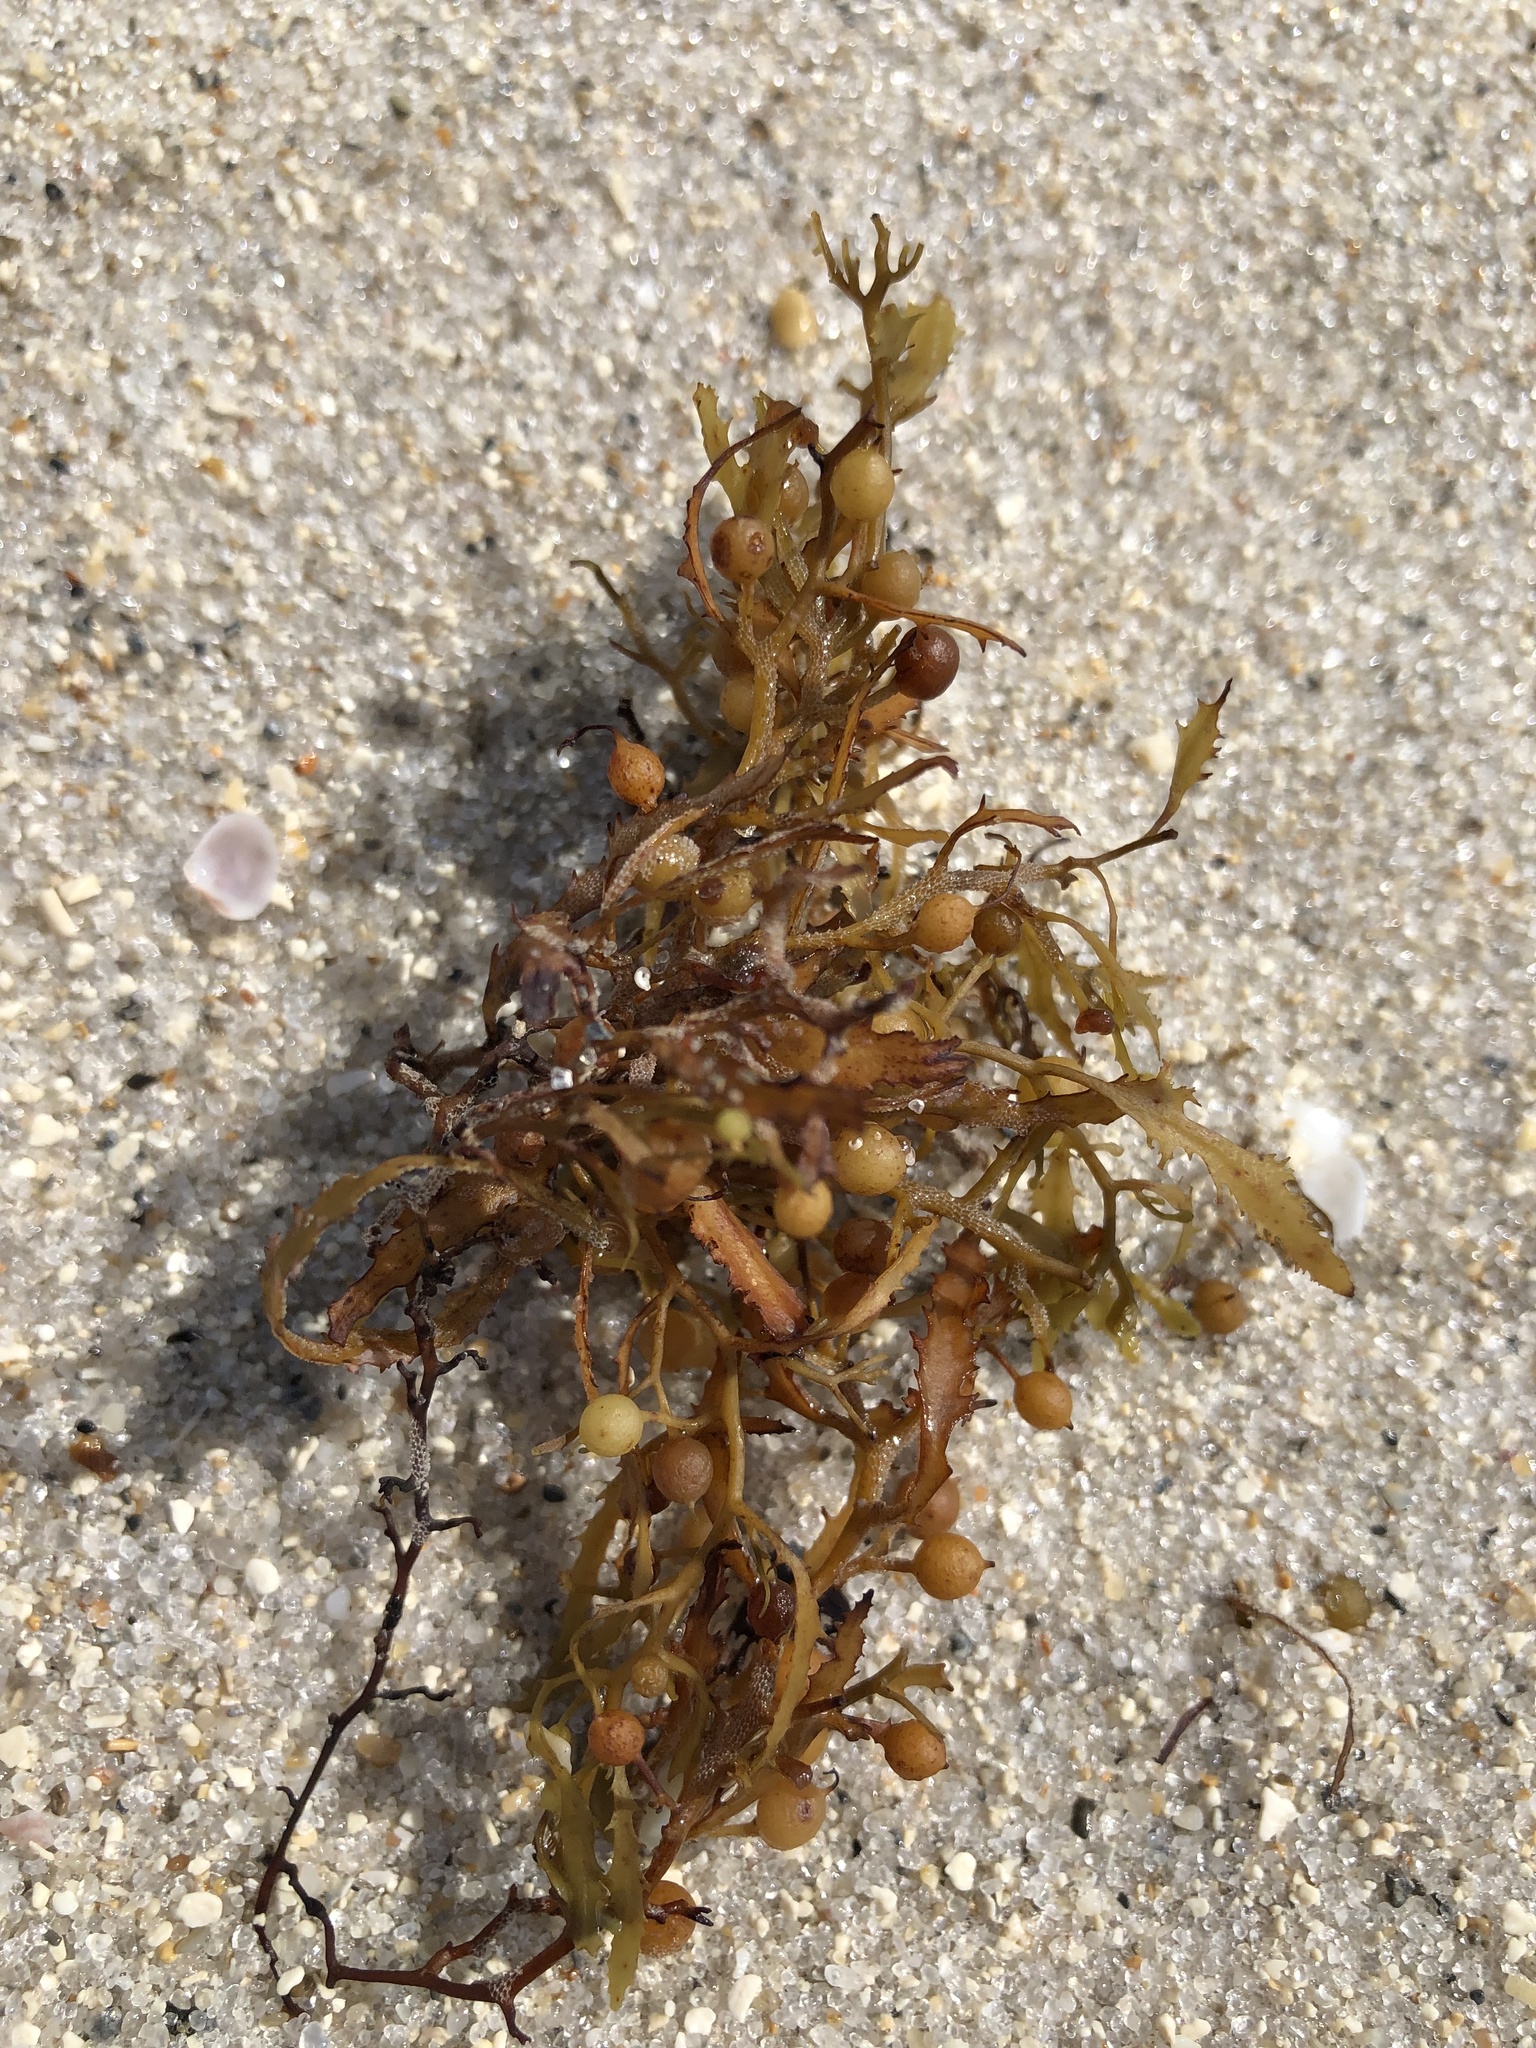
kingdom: Chromista
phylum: Ochrophyta
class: Phaeophyceae
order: Fucales
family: Sargassaceae
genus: Sargassum
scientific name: Sargassum fluitans
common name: Sargassum seaweed
